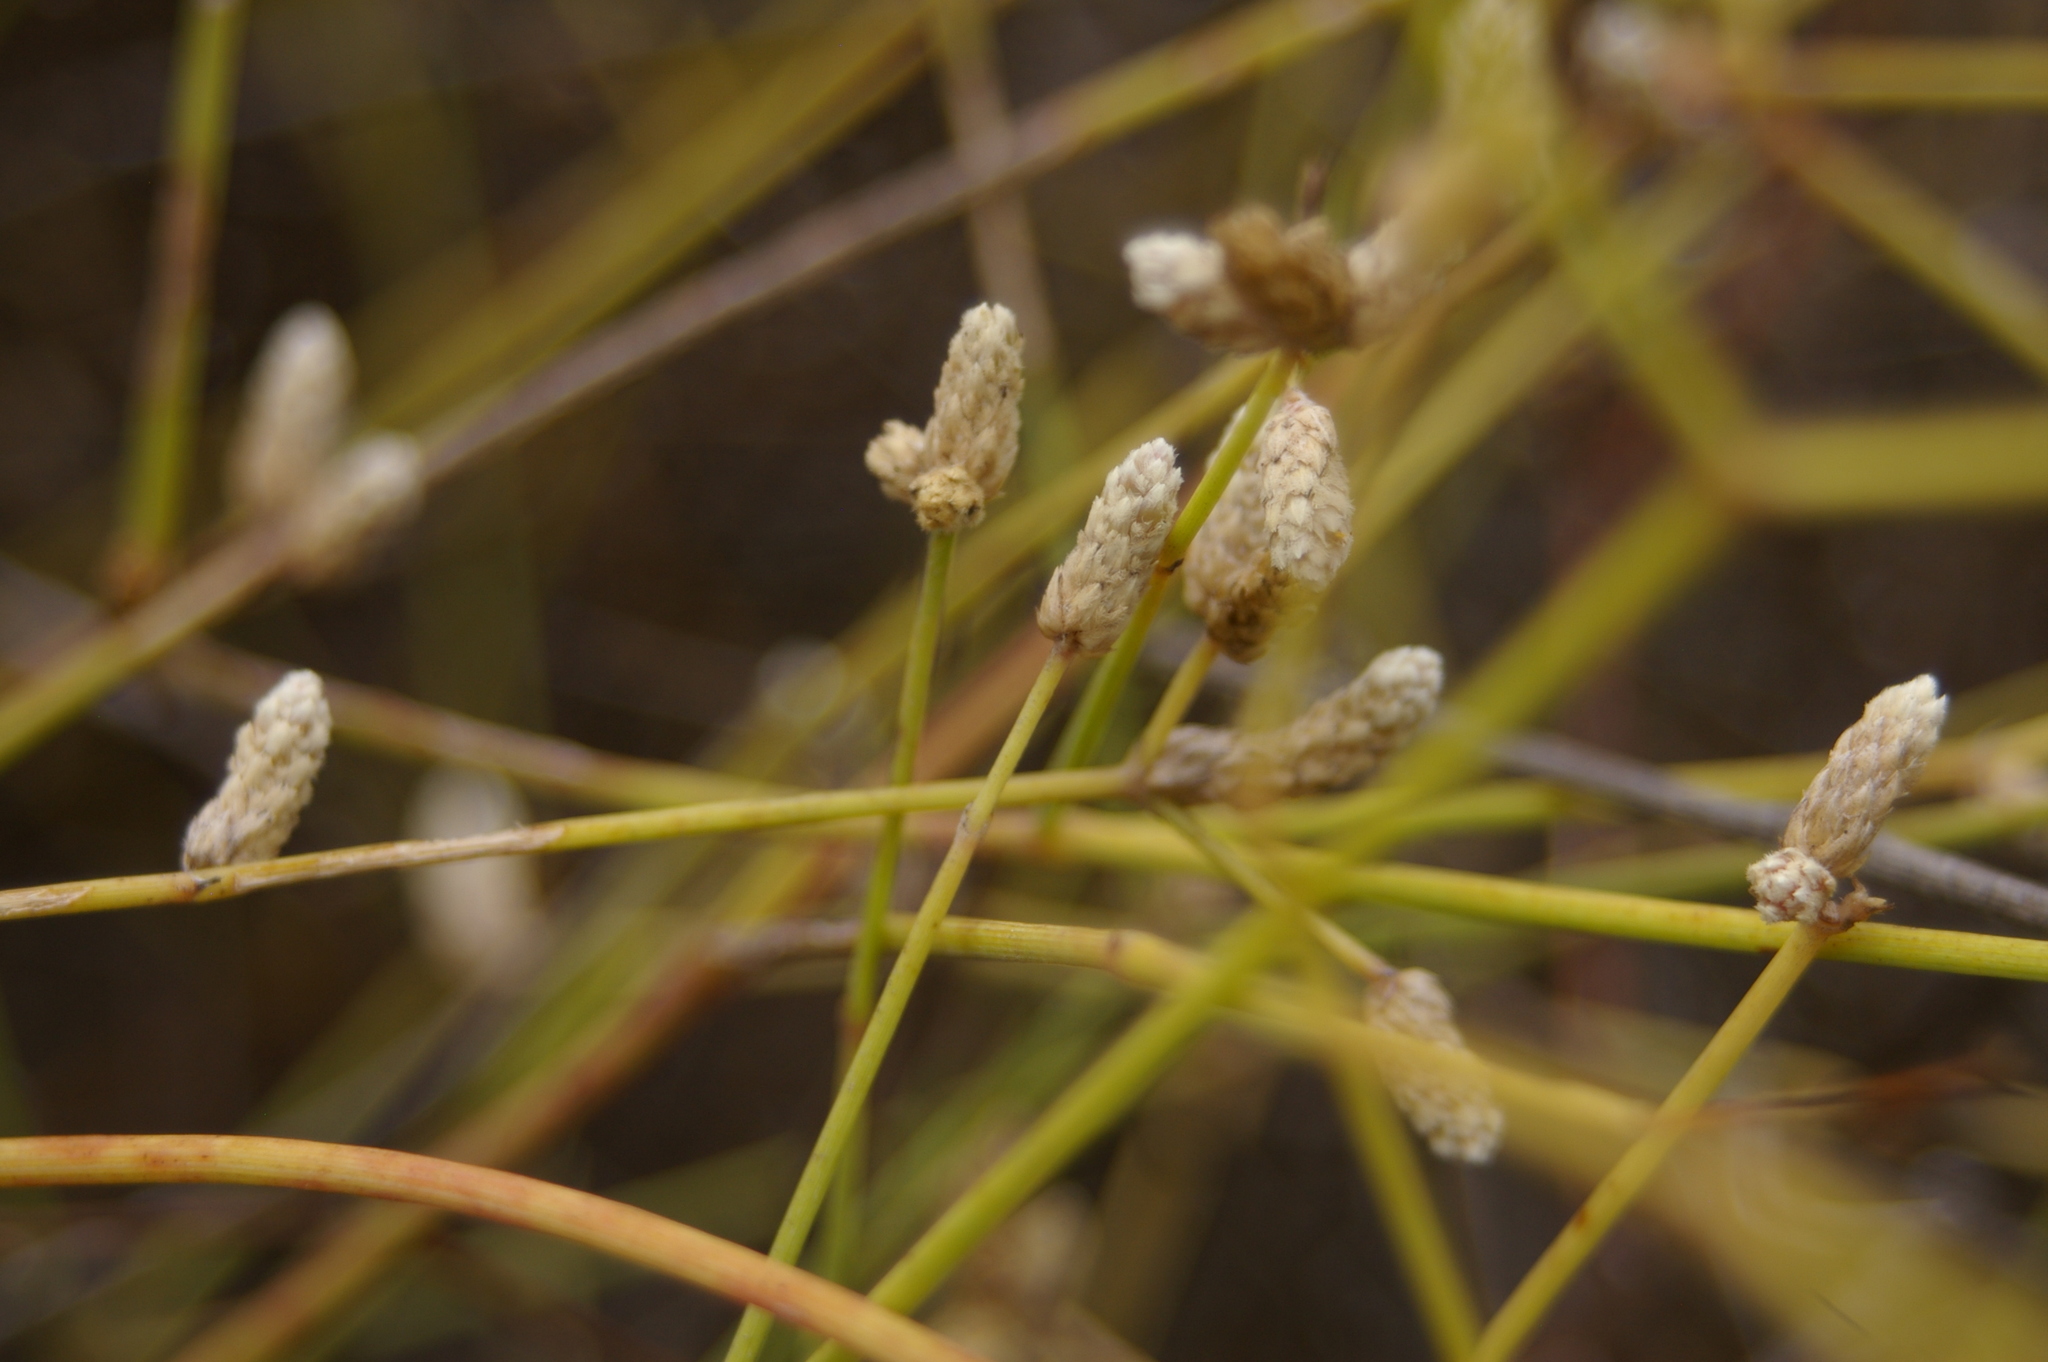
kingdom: Plantae
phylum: Tracheophyta
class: Magnoliopsida
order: Caryophyllales
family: Amaranthaceae
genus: Alternanthera
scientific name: Alternanthera filifolia
